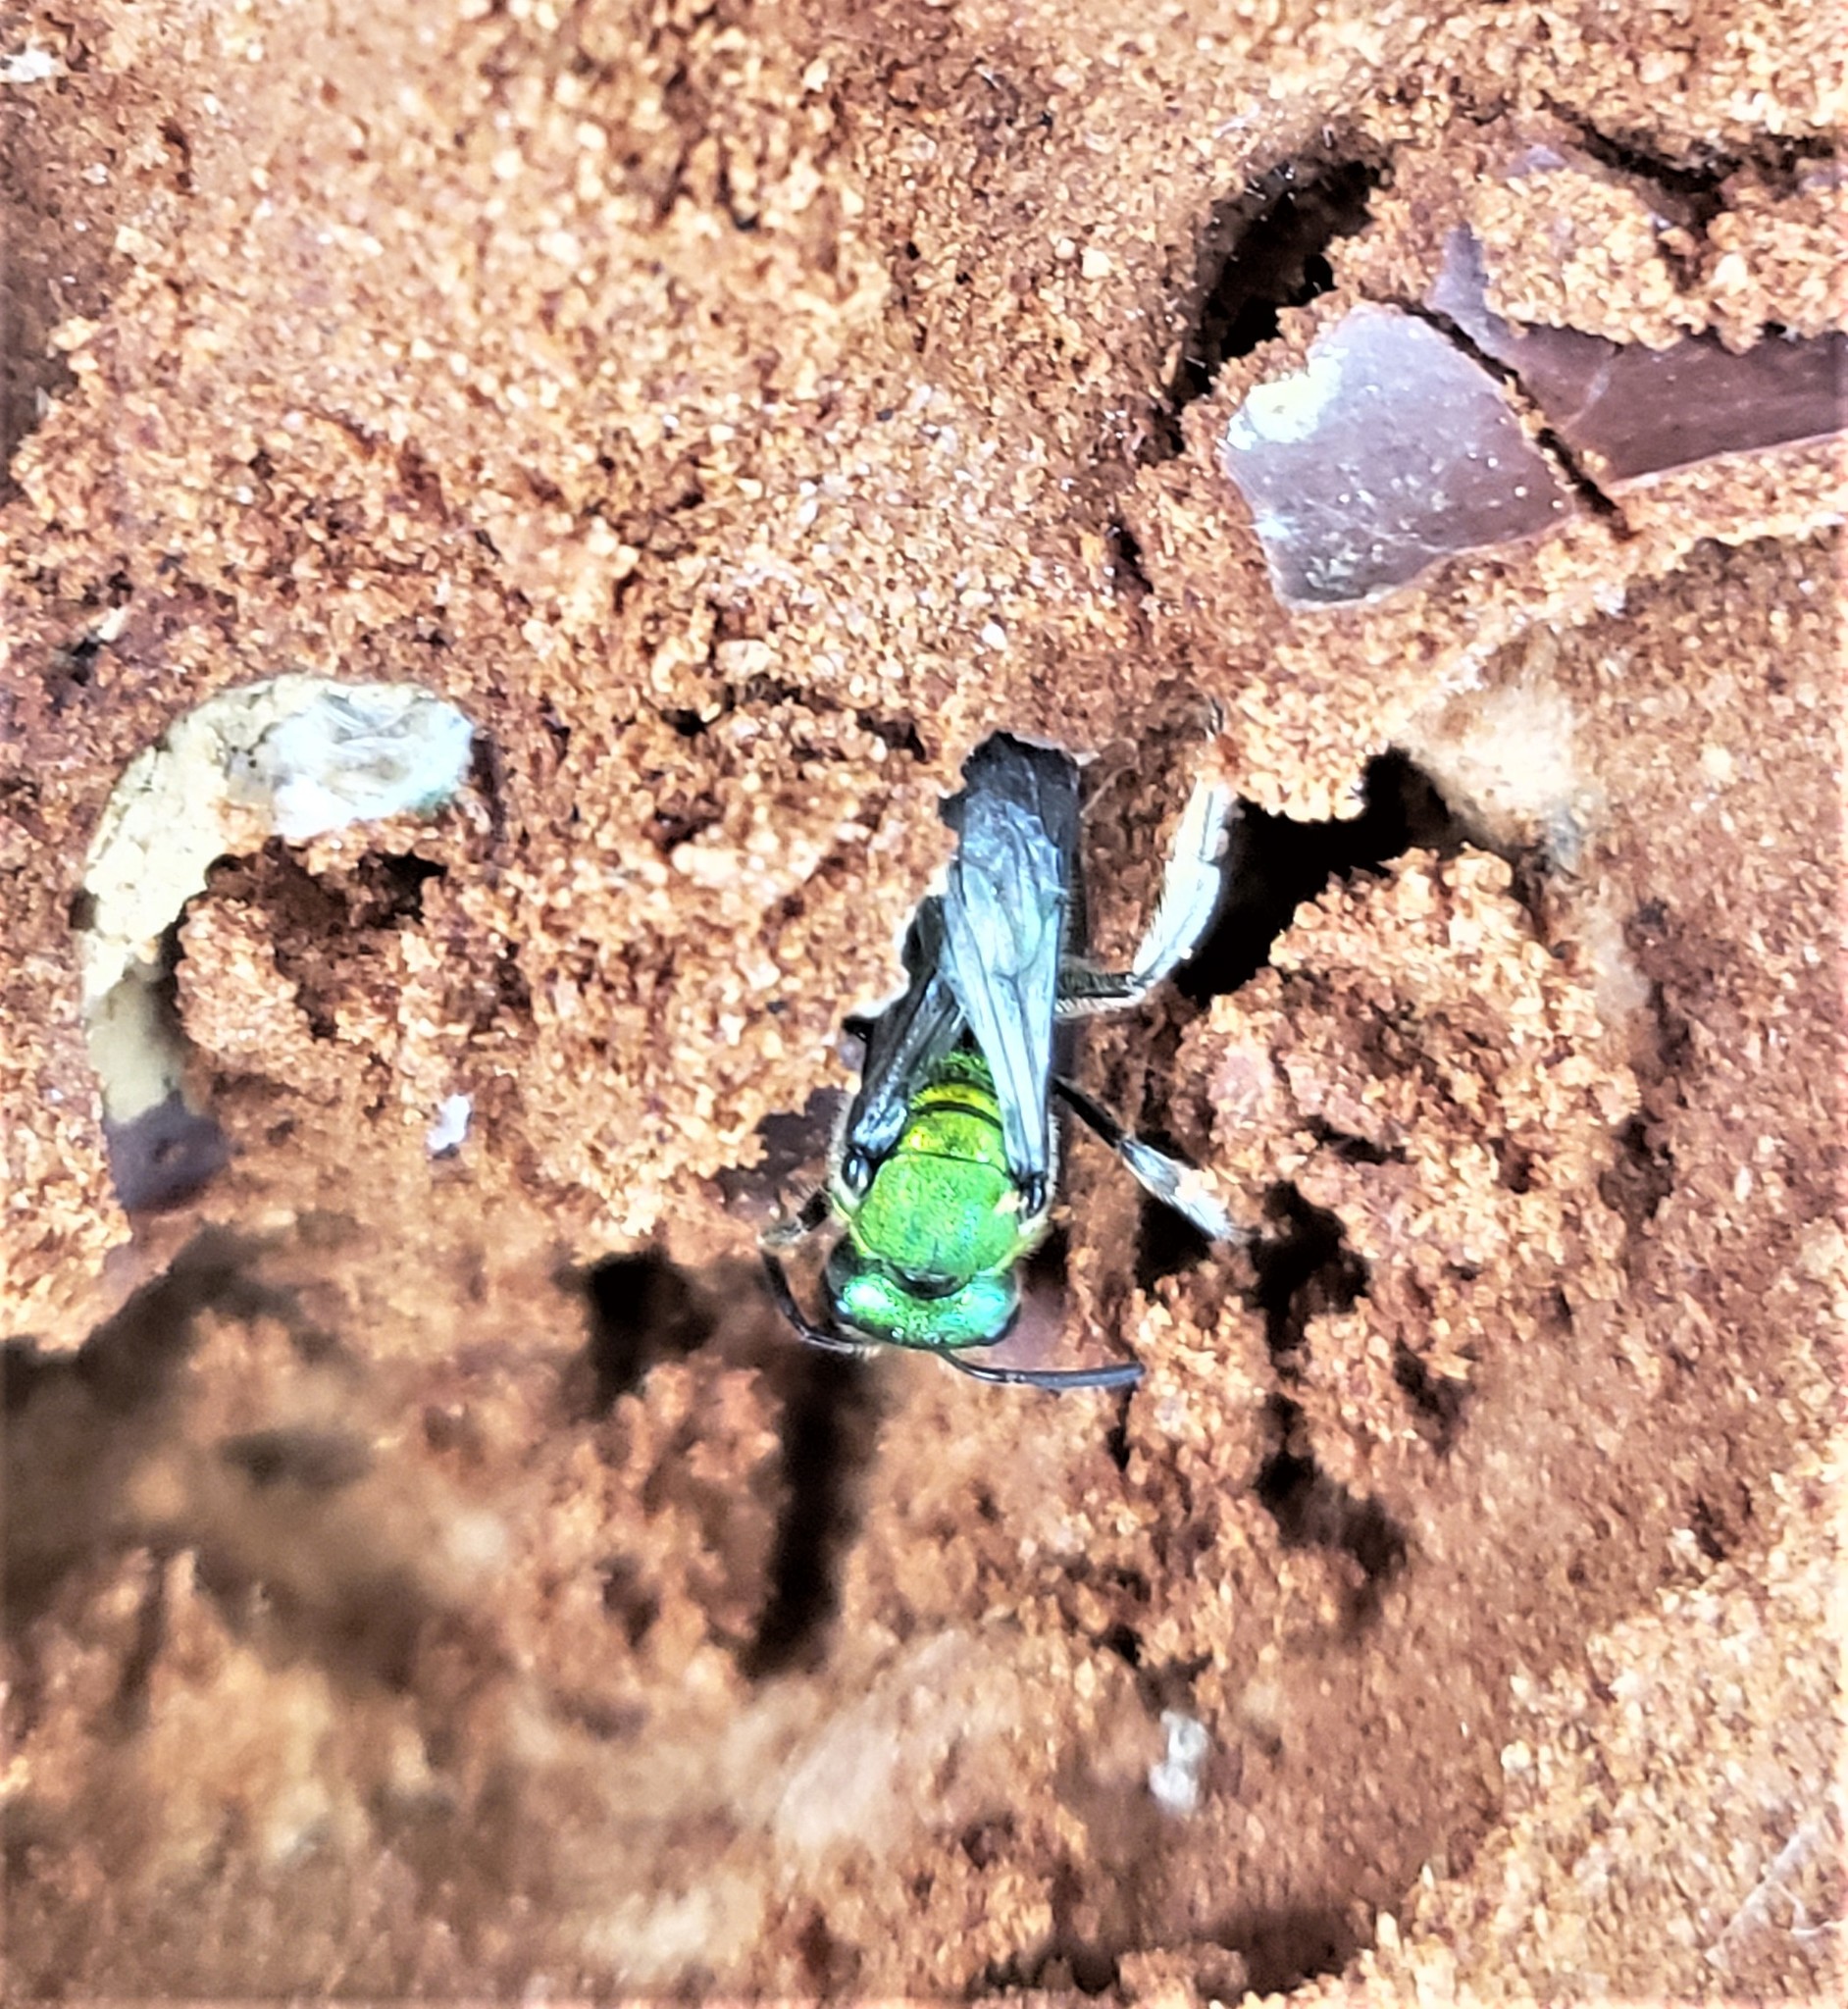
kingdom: Animalia
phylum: Arthropoda
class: Insecta
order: Hymenoptera
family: Halictidae
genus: Augochlora
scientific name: Augochlora pura
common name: Pure green sweat bee
